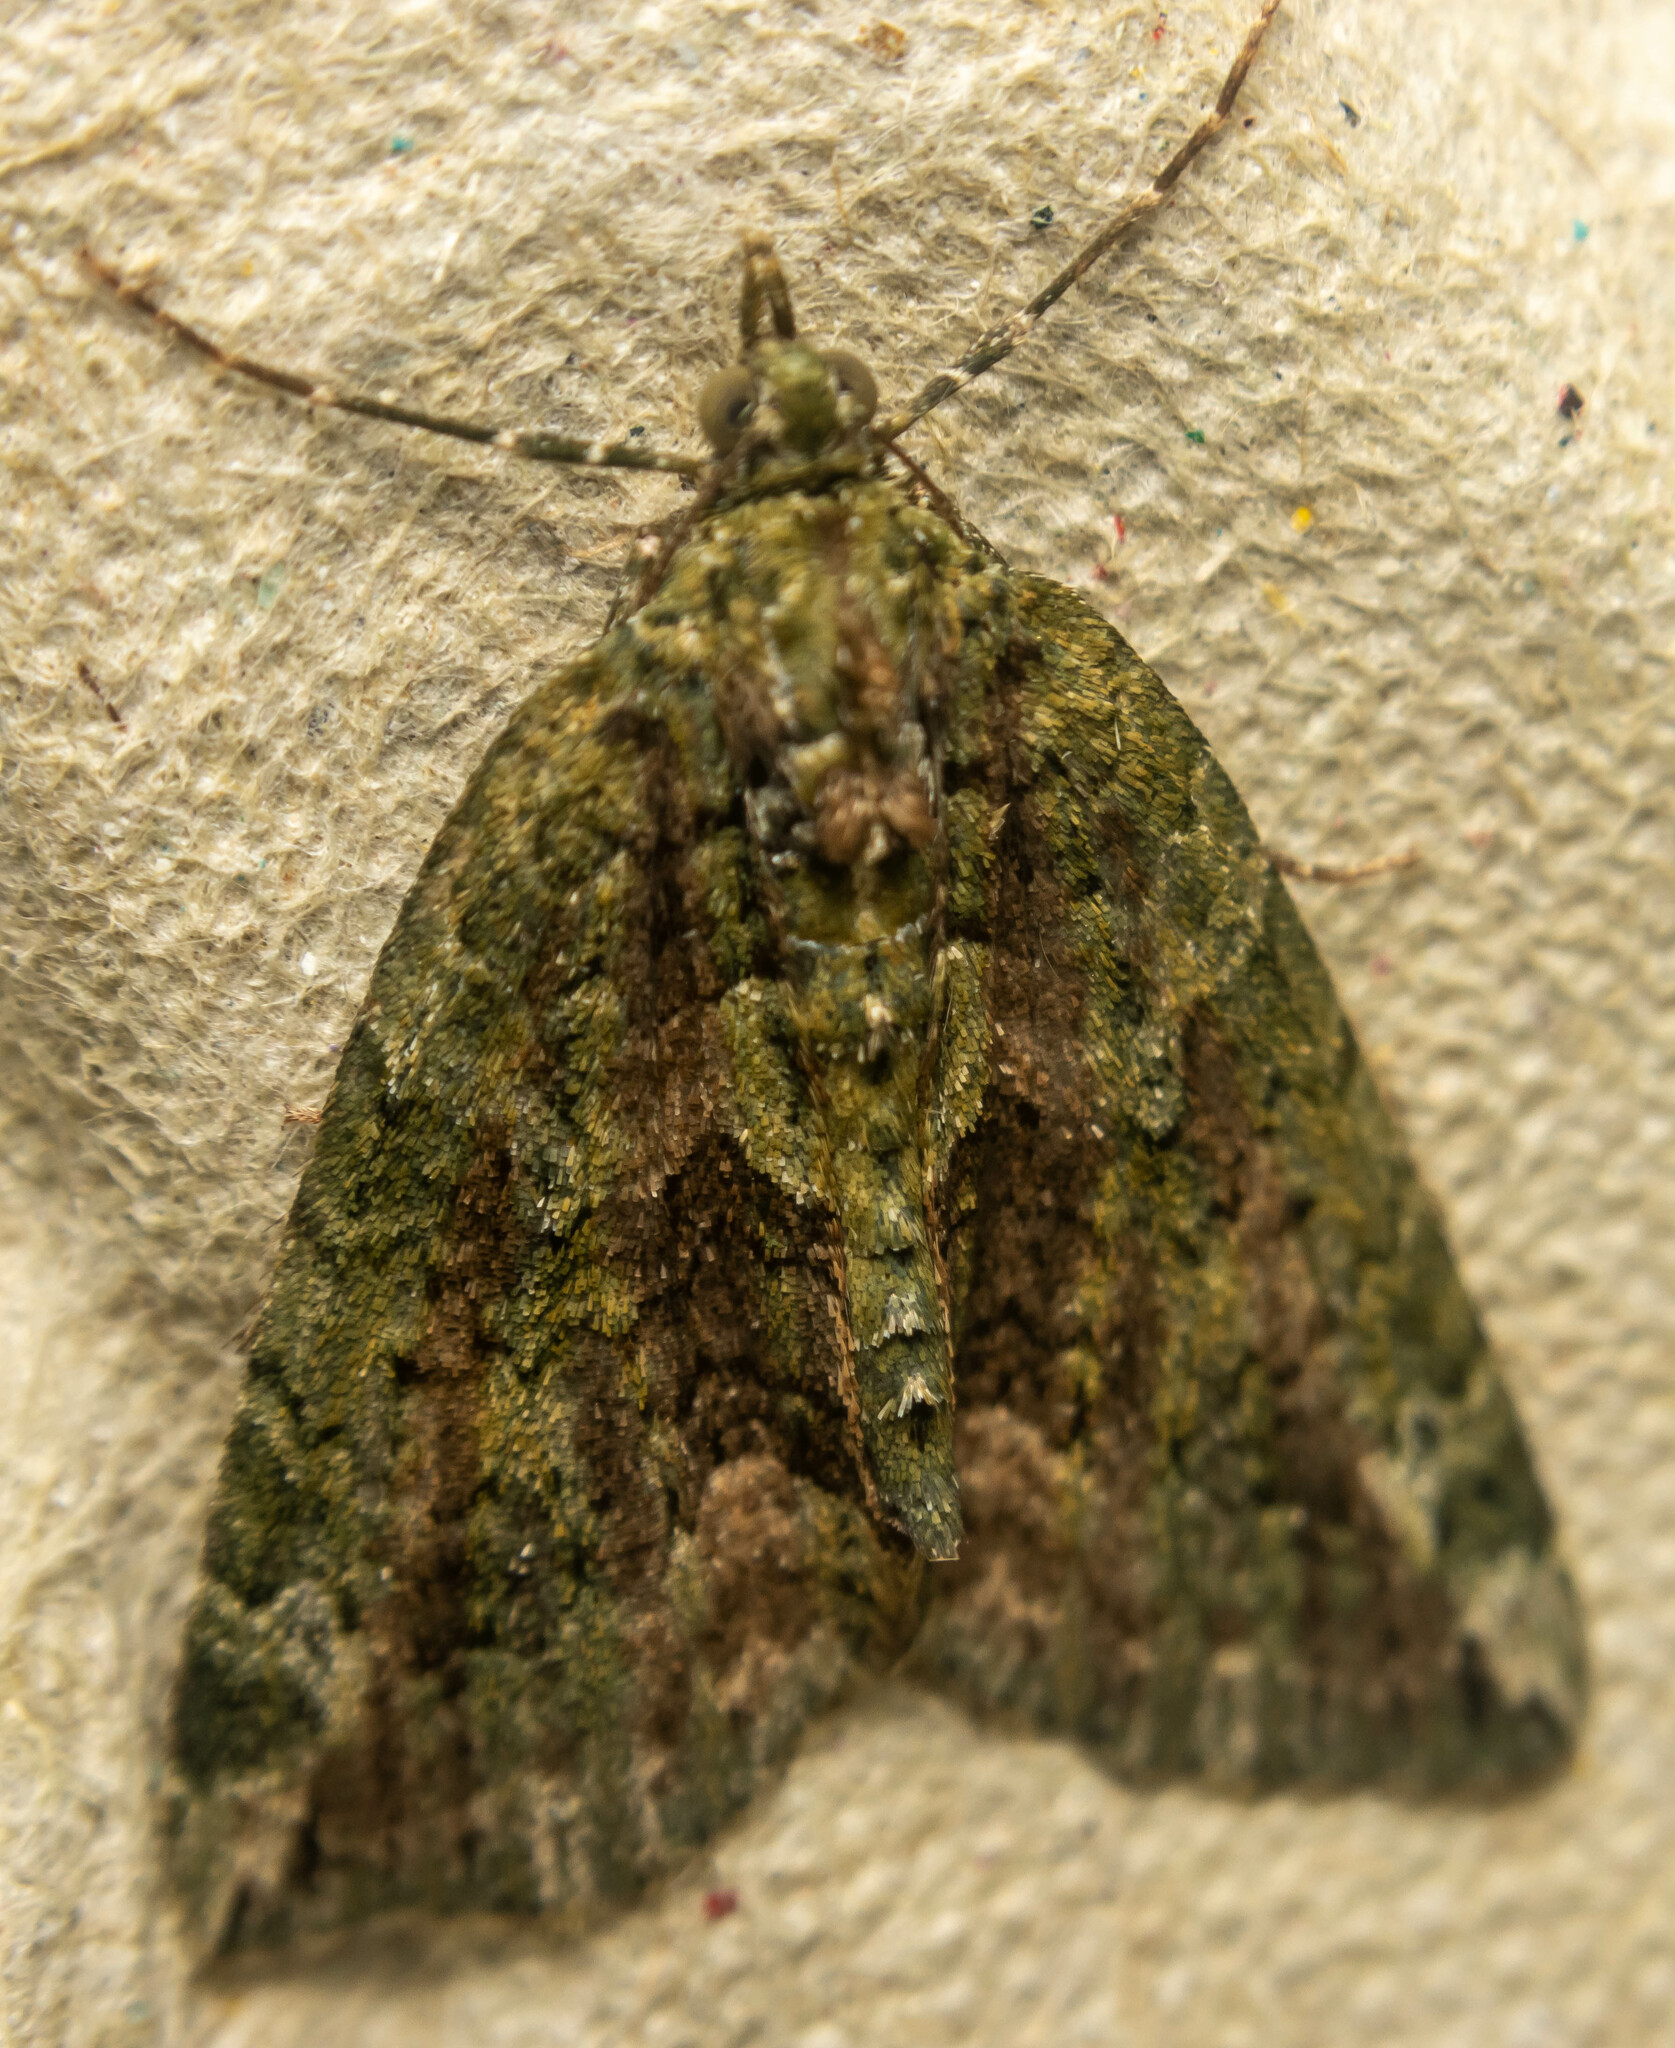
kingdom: Animalia
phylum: Arthropoda
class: Insecta
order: Lepidoptera
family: Geometridae
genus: Chloroclysta
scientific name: Chloroclysta siterata
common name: Red-green carpet
